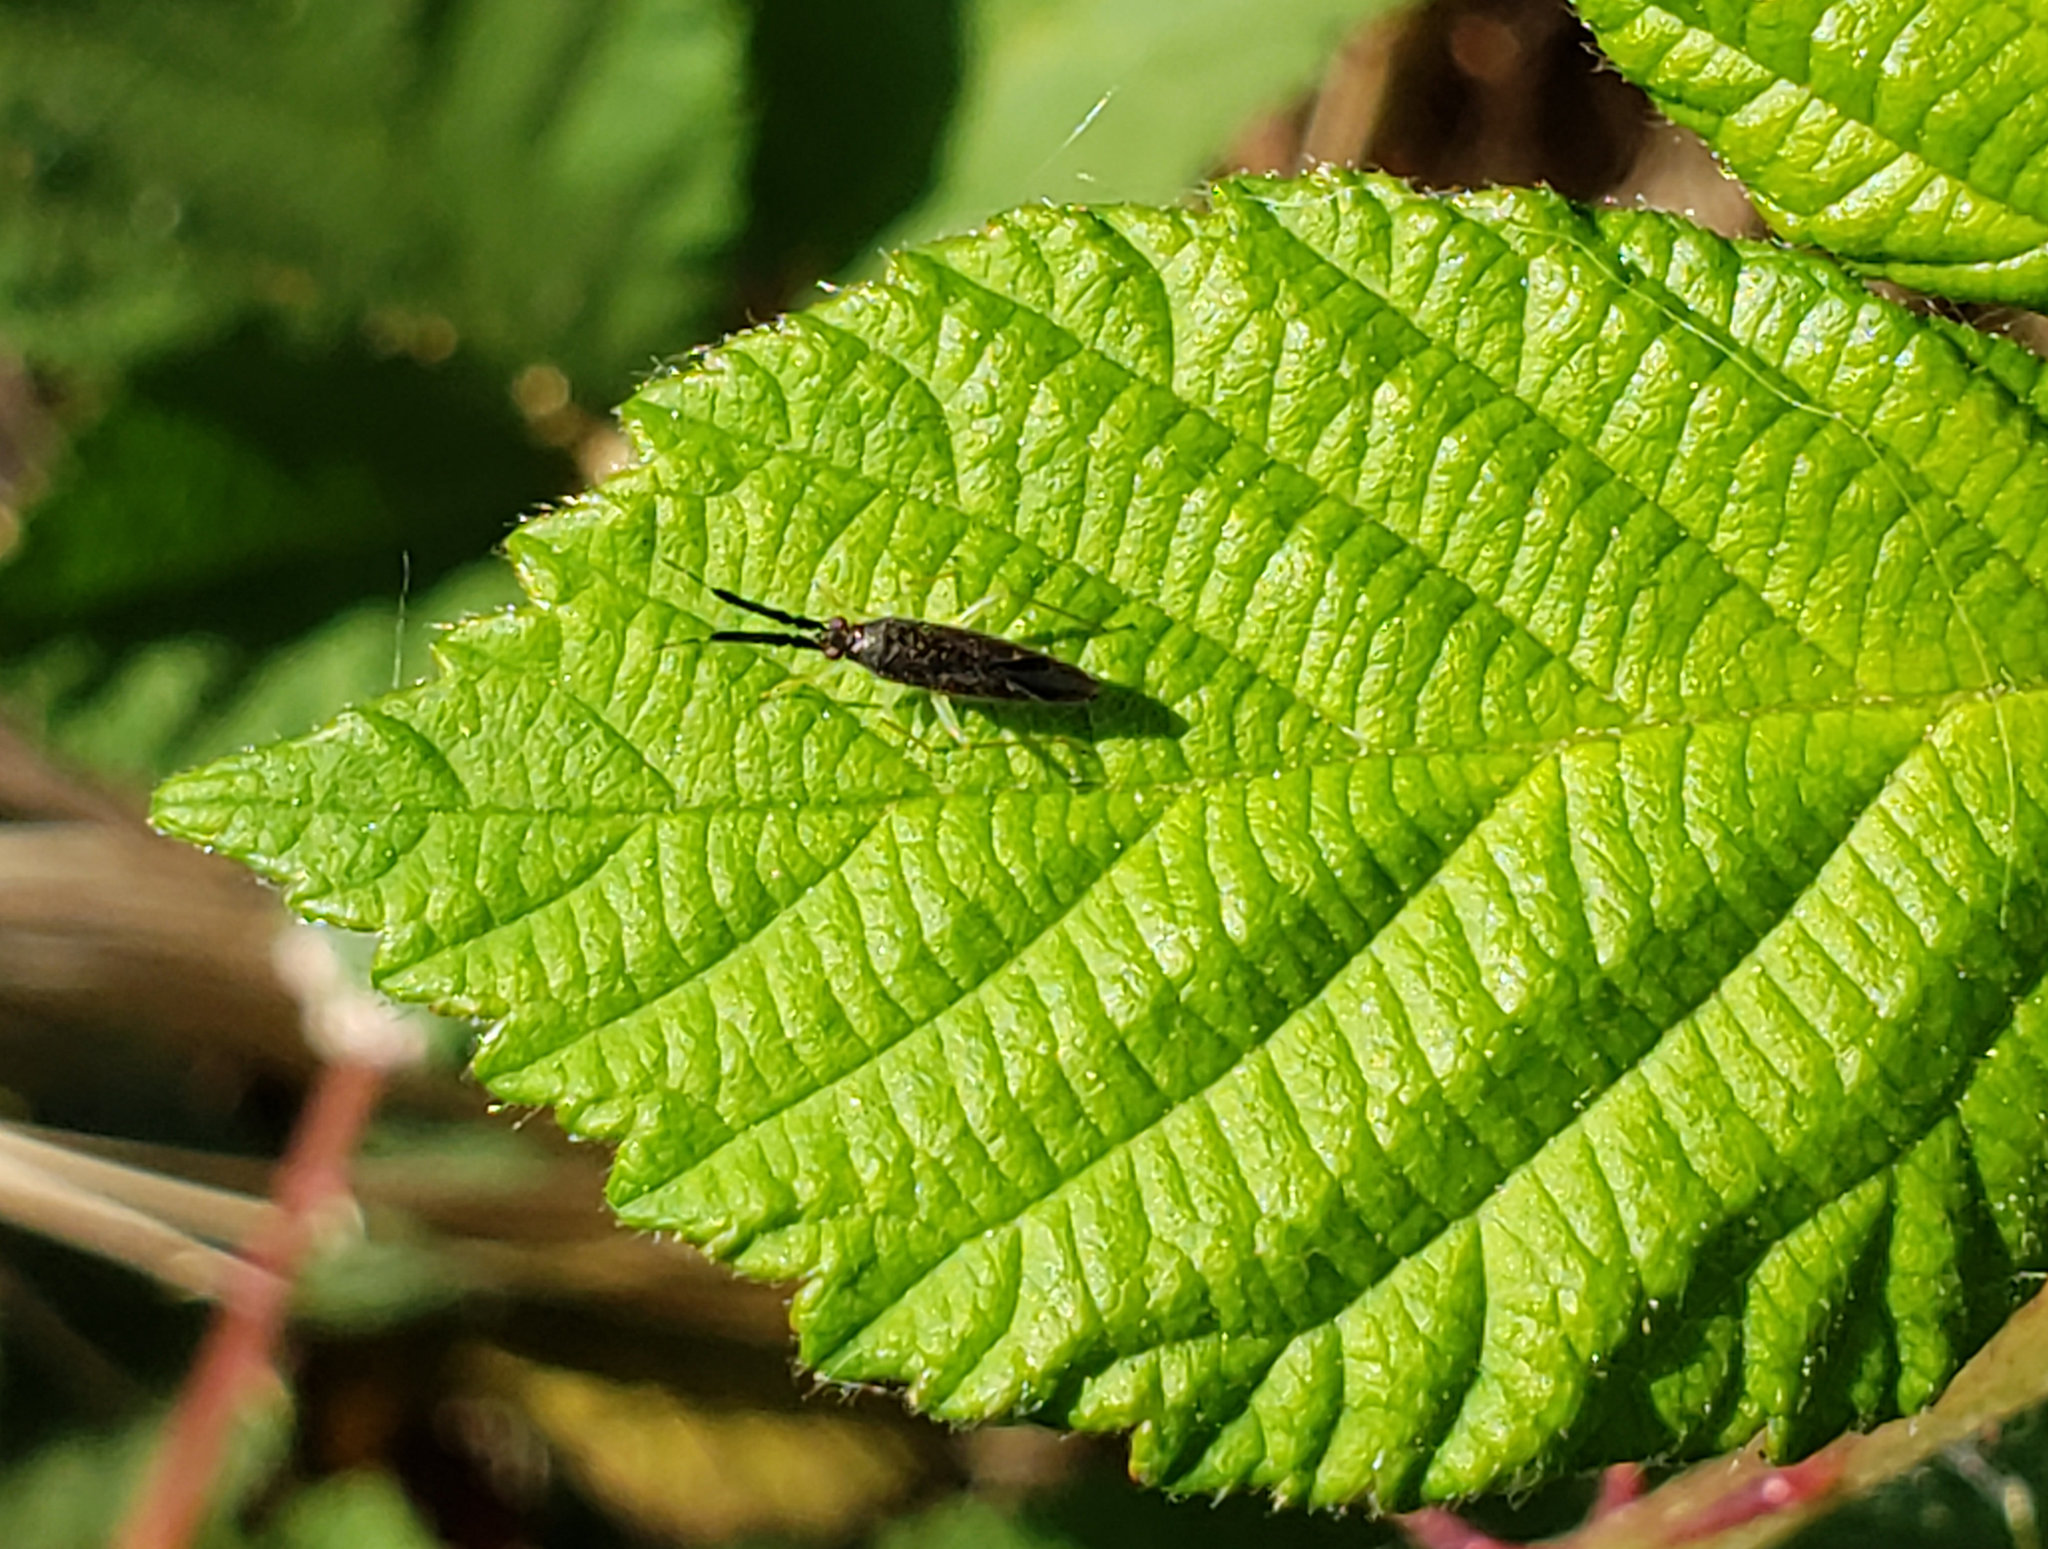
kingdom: Animalia
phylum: Arthropoda
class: Insecta
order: Hemiptera
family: Miridae
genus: Heterotoma
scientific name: Heterotoma planicornis
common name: Plant bug
